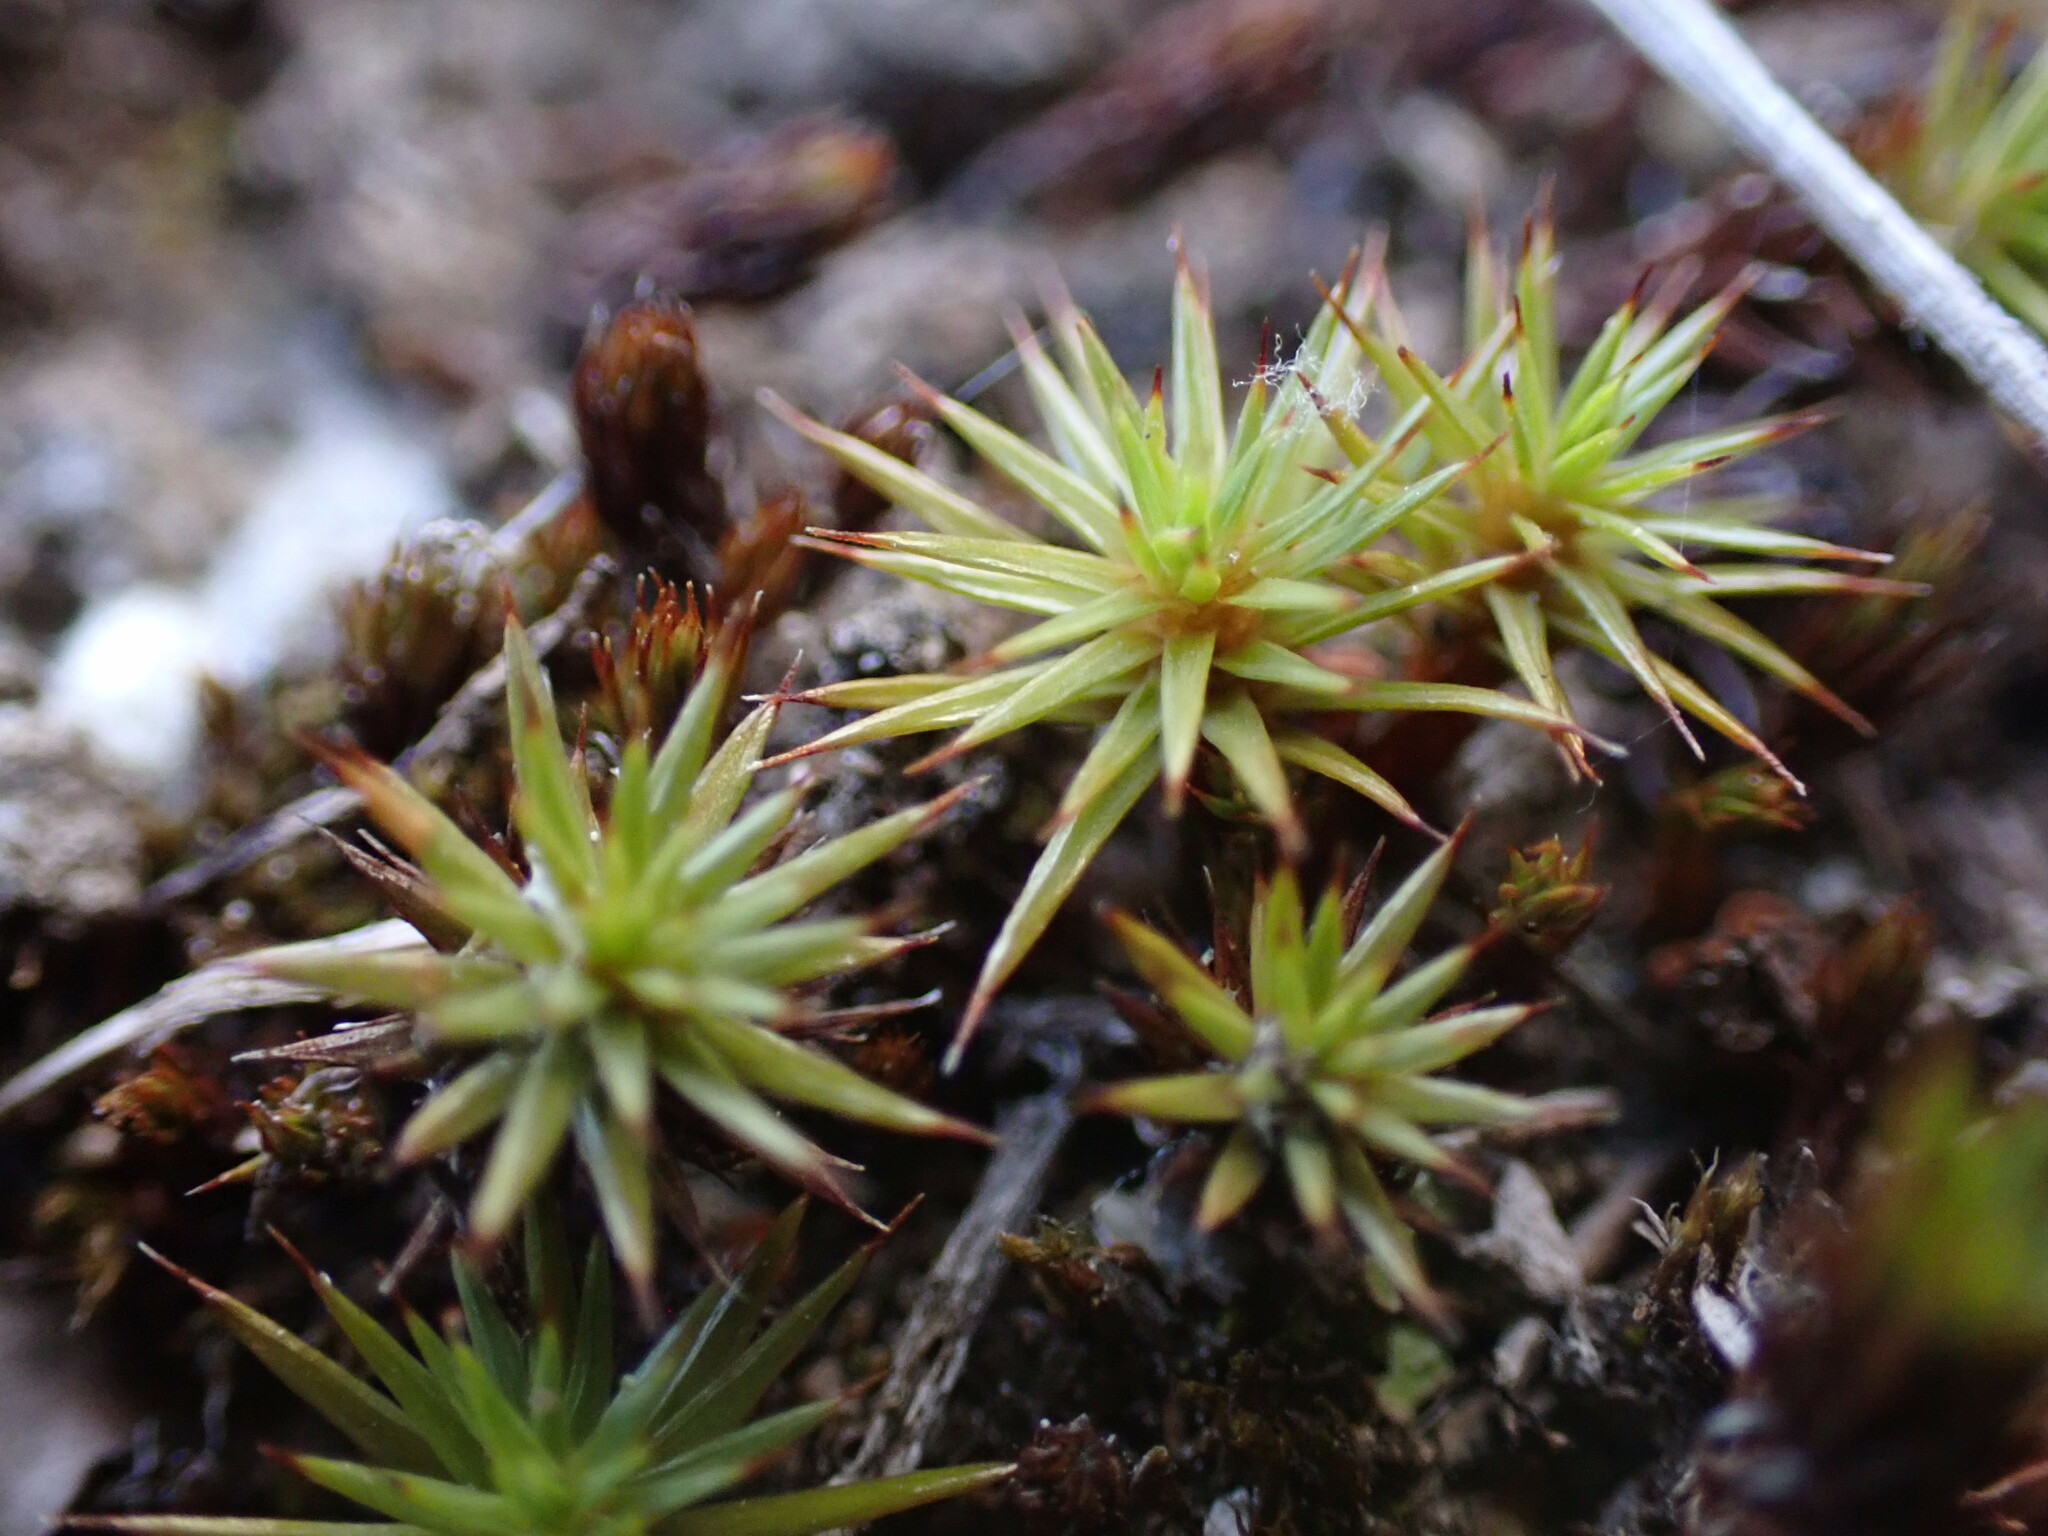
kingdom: Plantae
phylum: Bryophyta
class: Polytrichopsida
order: Polytrichales
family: Polytrichaceae
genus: Polytrichum
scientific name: Polytrichum juniperinum
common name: Juniper haircap moss
